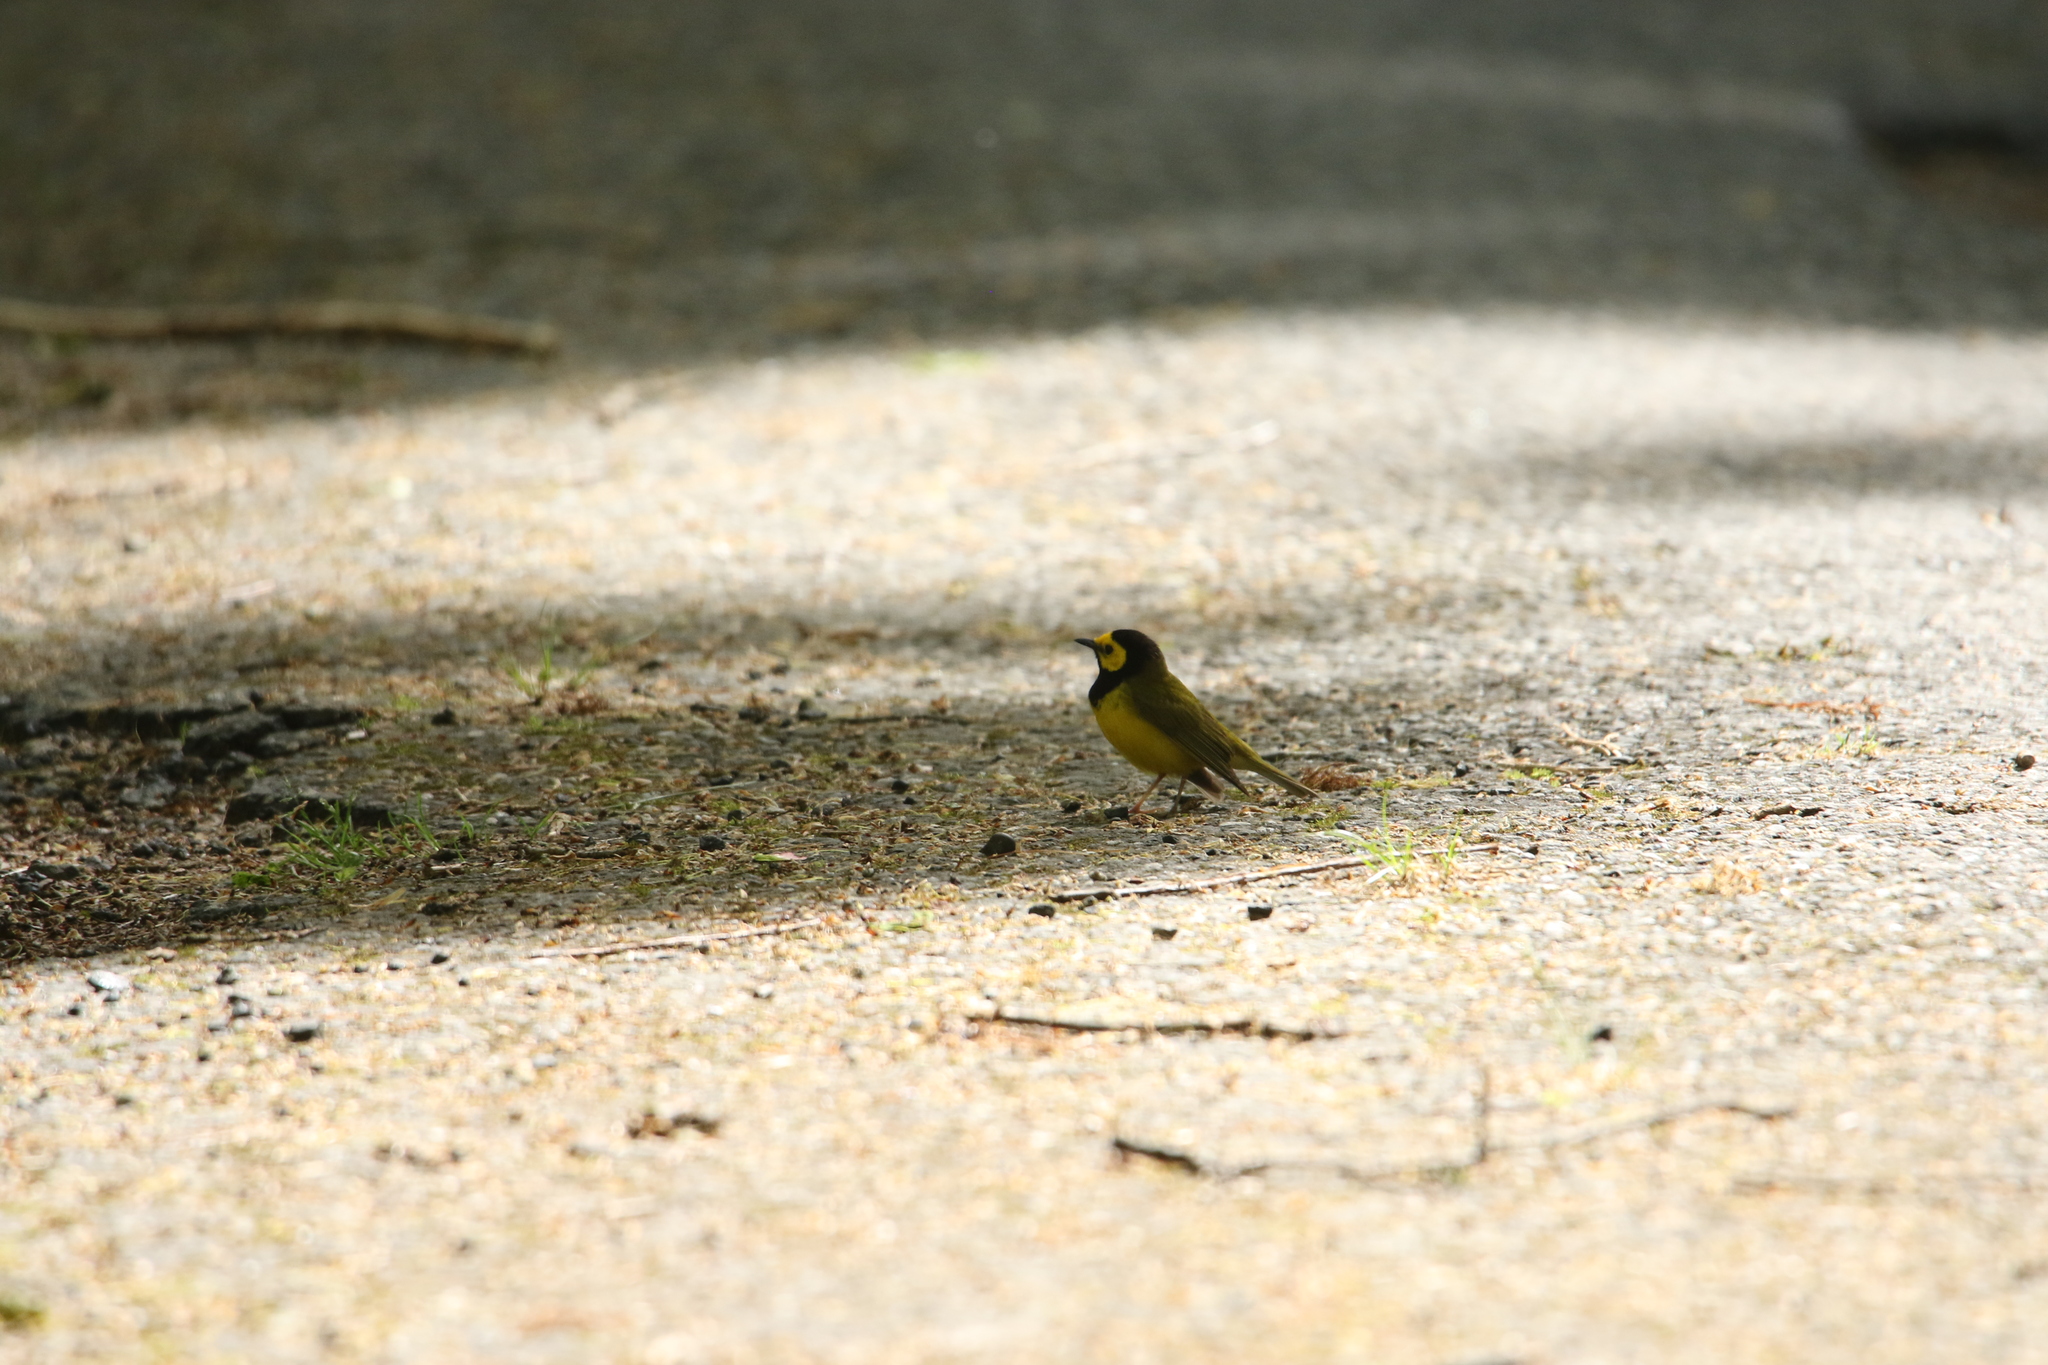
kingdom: Animalia
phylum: Chordata
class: Aves
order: Passeriformes
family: Parulidae
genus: Setophaga
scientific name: Setophaga citrina
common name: Hooded warbler
